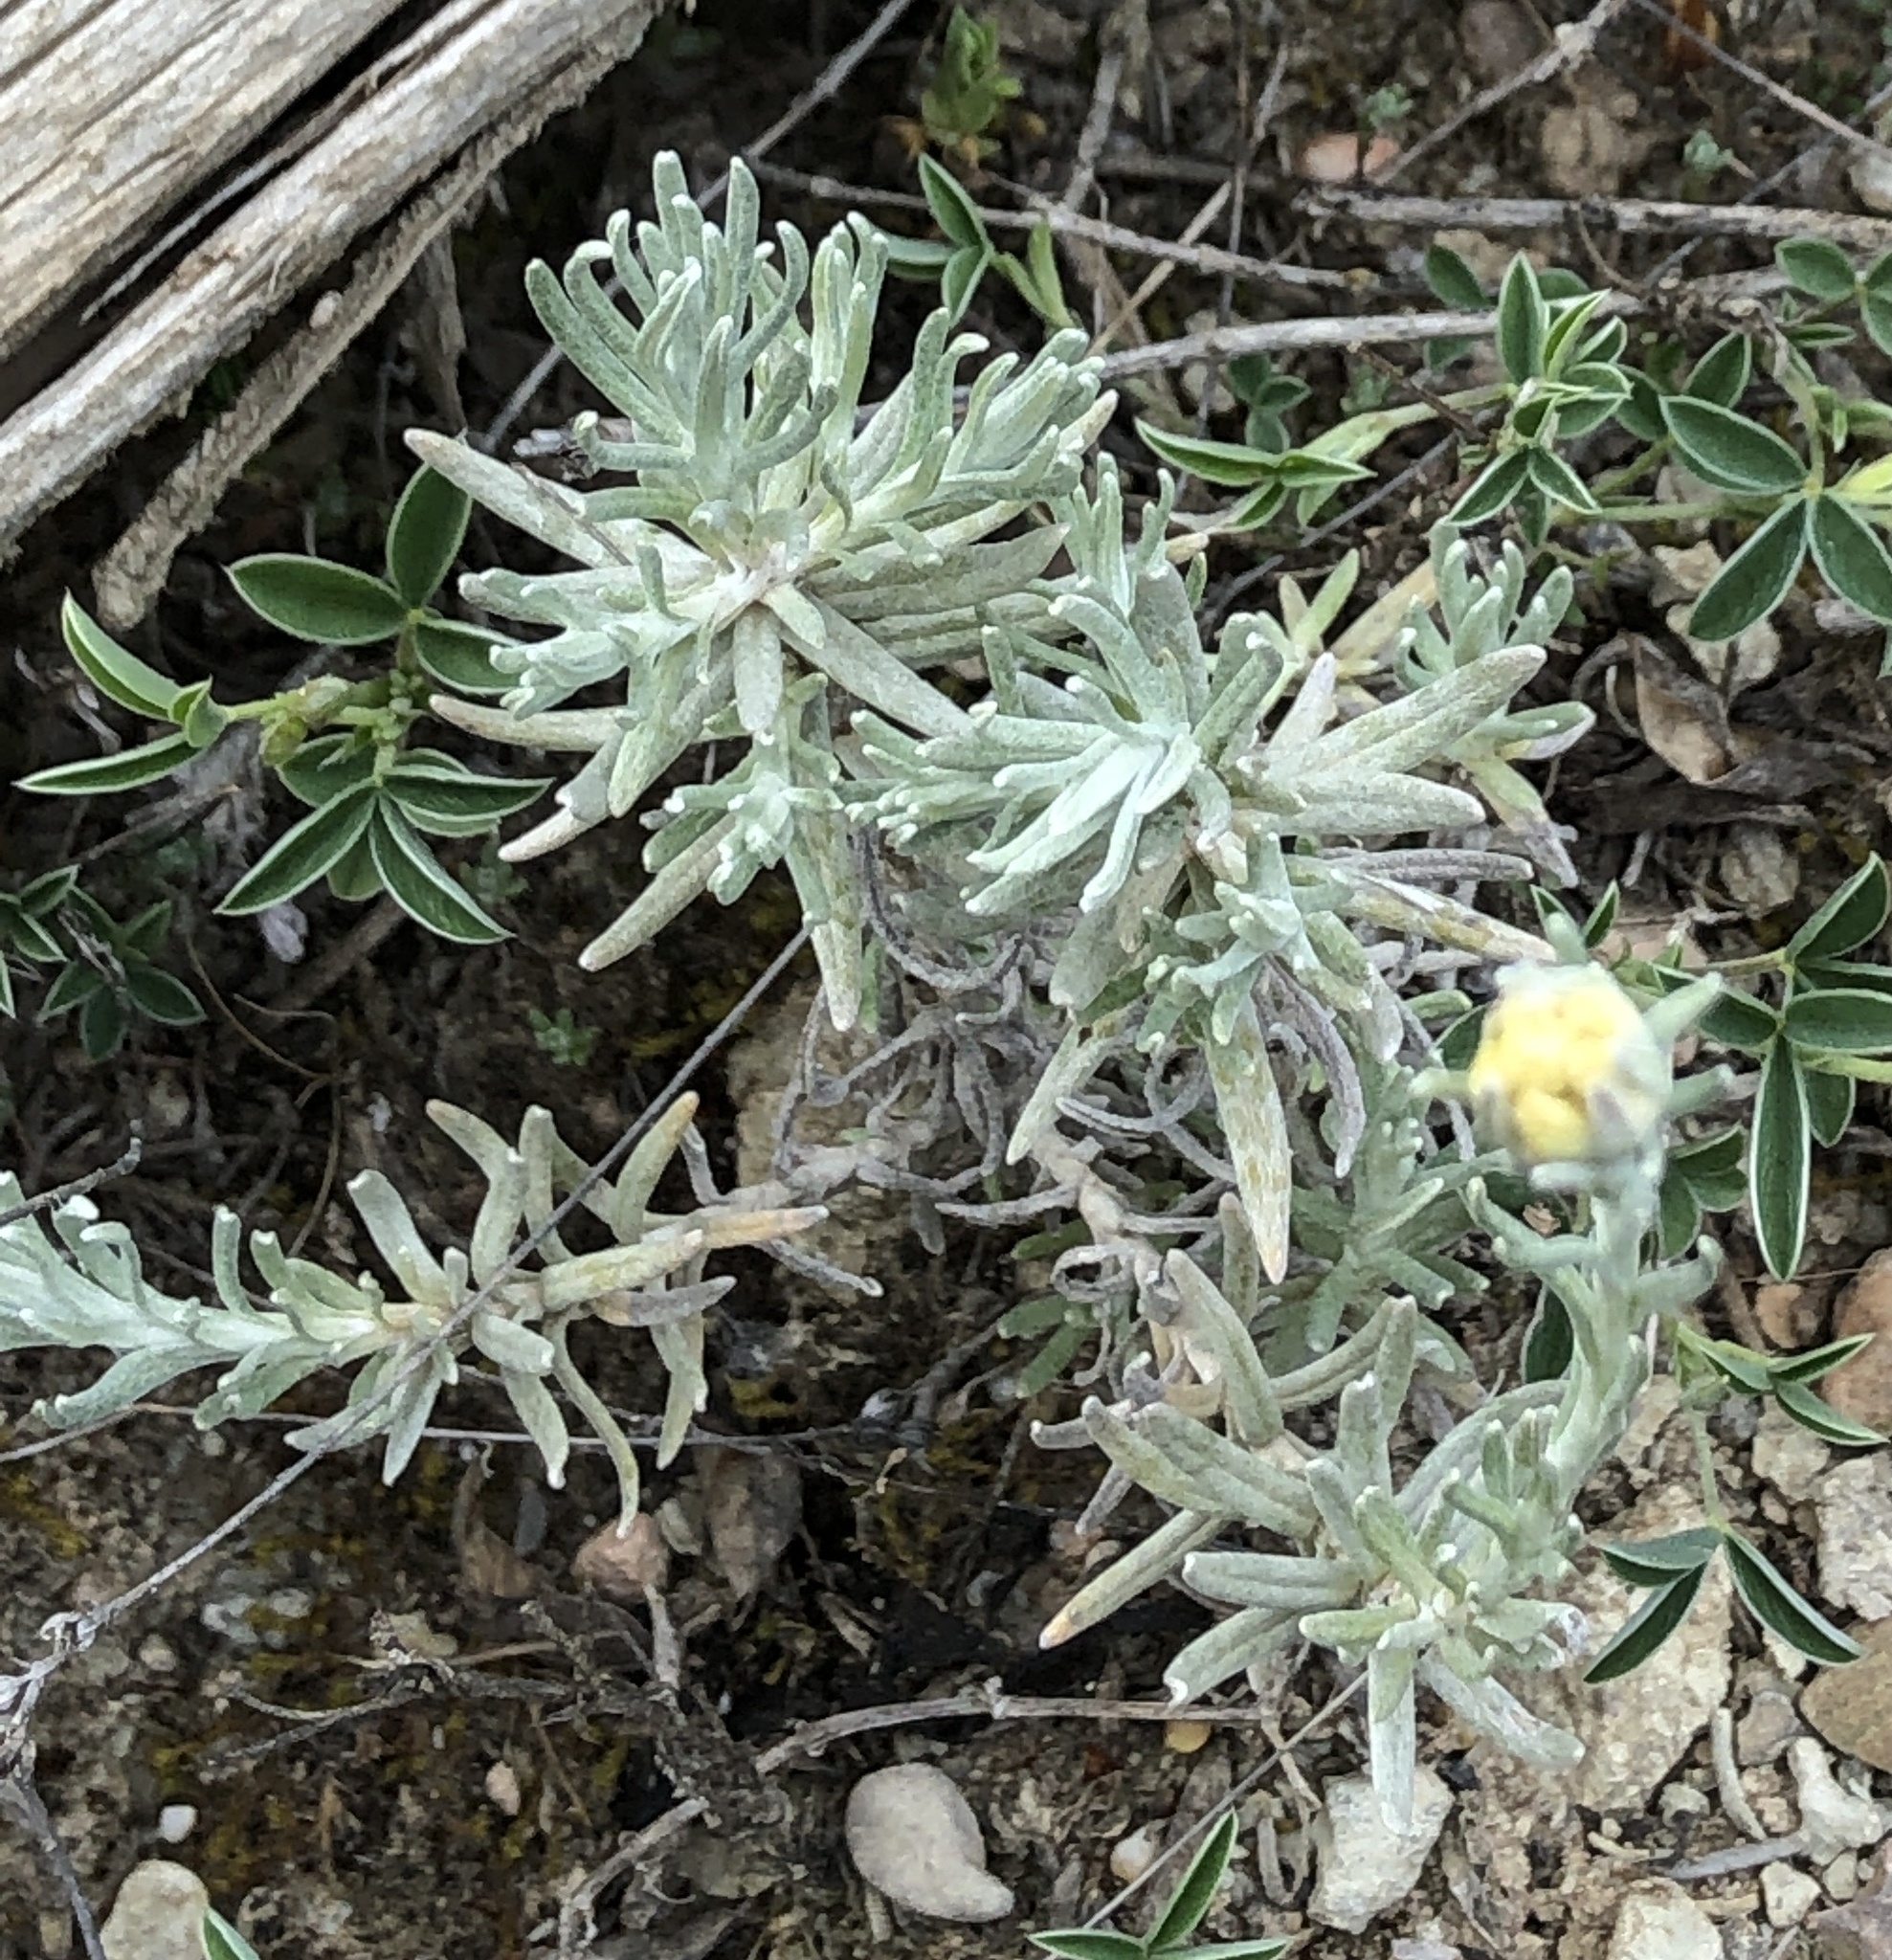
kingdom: Plantae
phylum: Tracheophyta
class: Magnoliopsida
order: Asterales
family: Asteraceae
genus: Helichrysum
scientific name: Helichrysum stoechas
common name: Goldilocks
